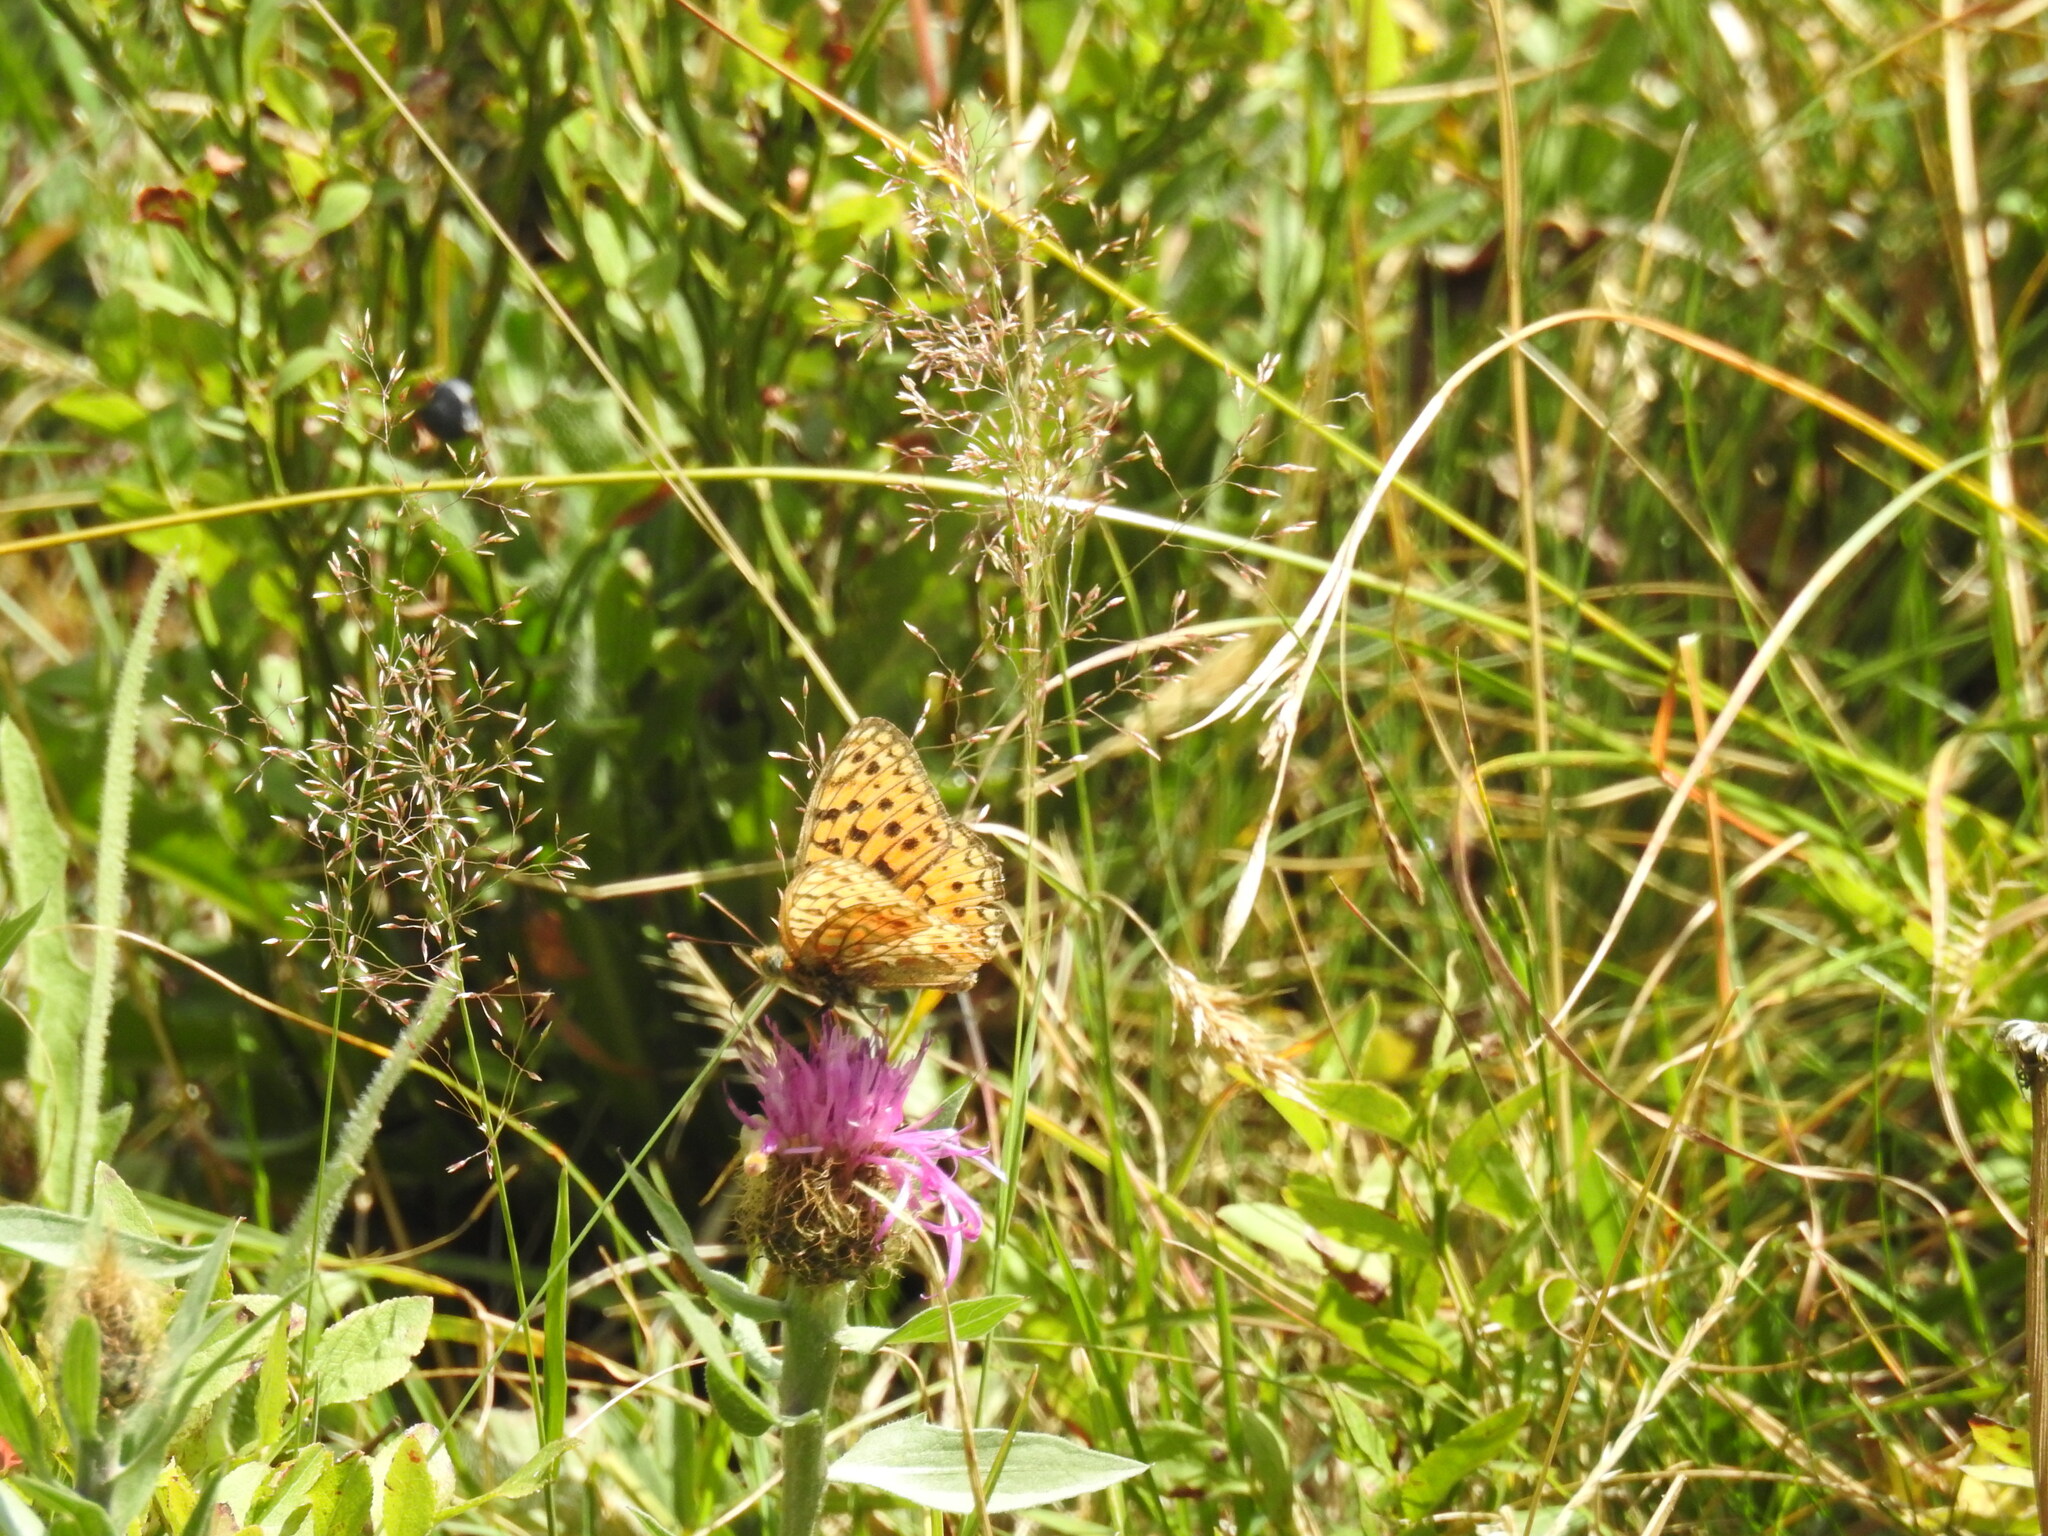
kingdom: Animalia
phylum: Arthropoda
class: Insecta
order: Lepidoptera
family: Nymphalidae
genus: Fabriciana
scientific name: Fabriciana niobe
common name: Niobe fritillary
